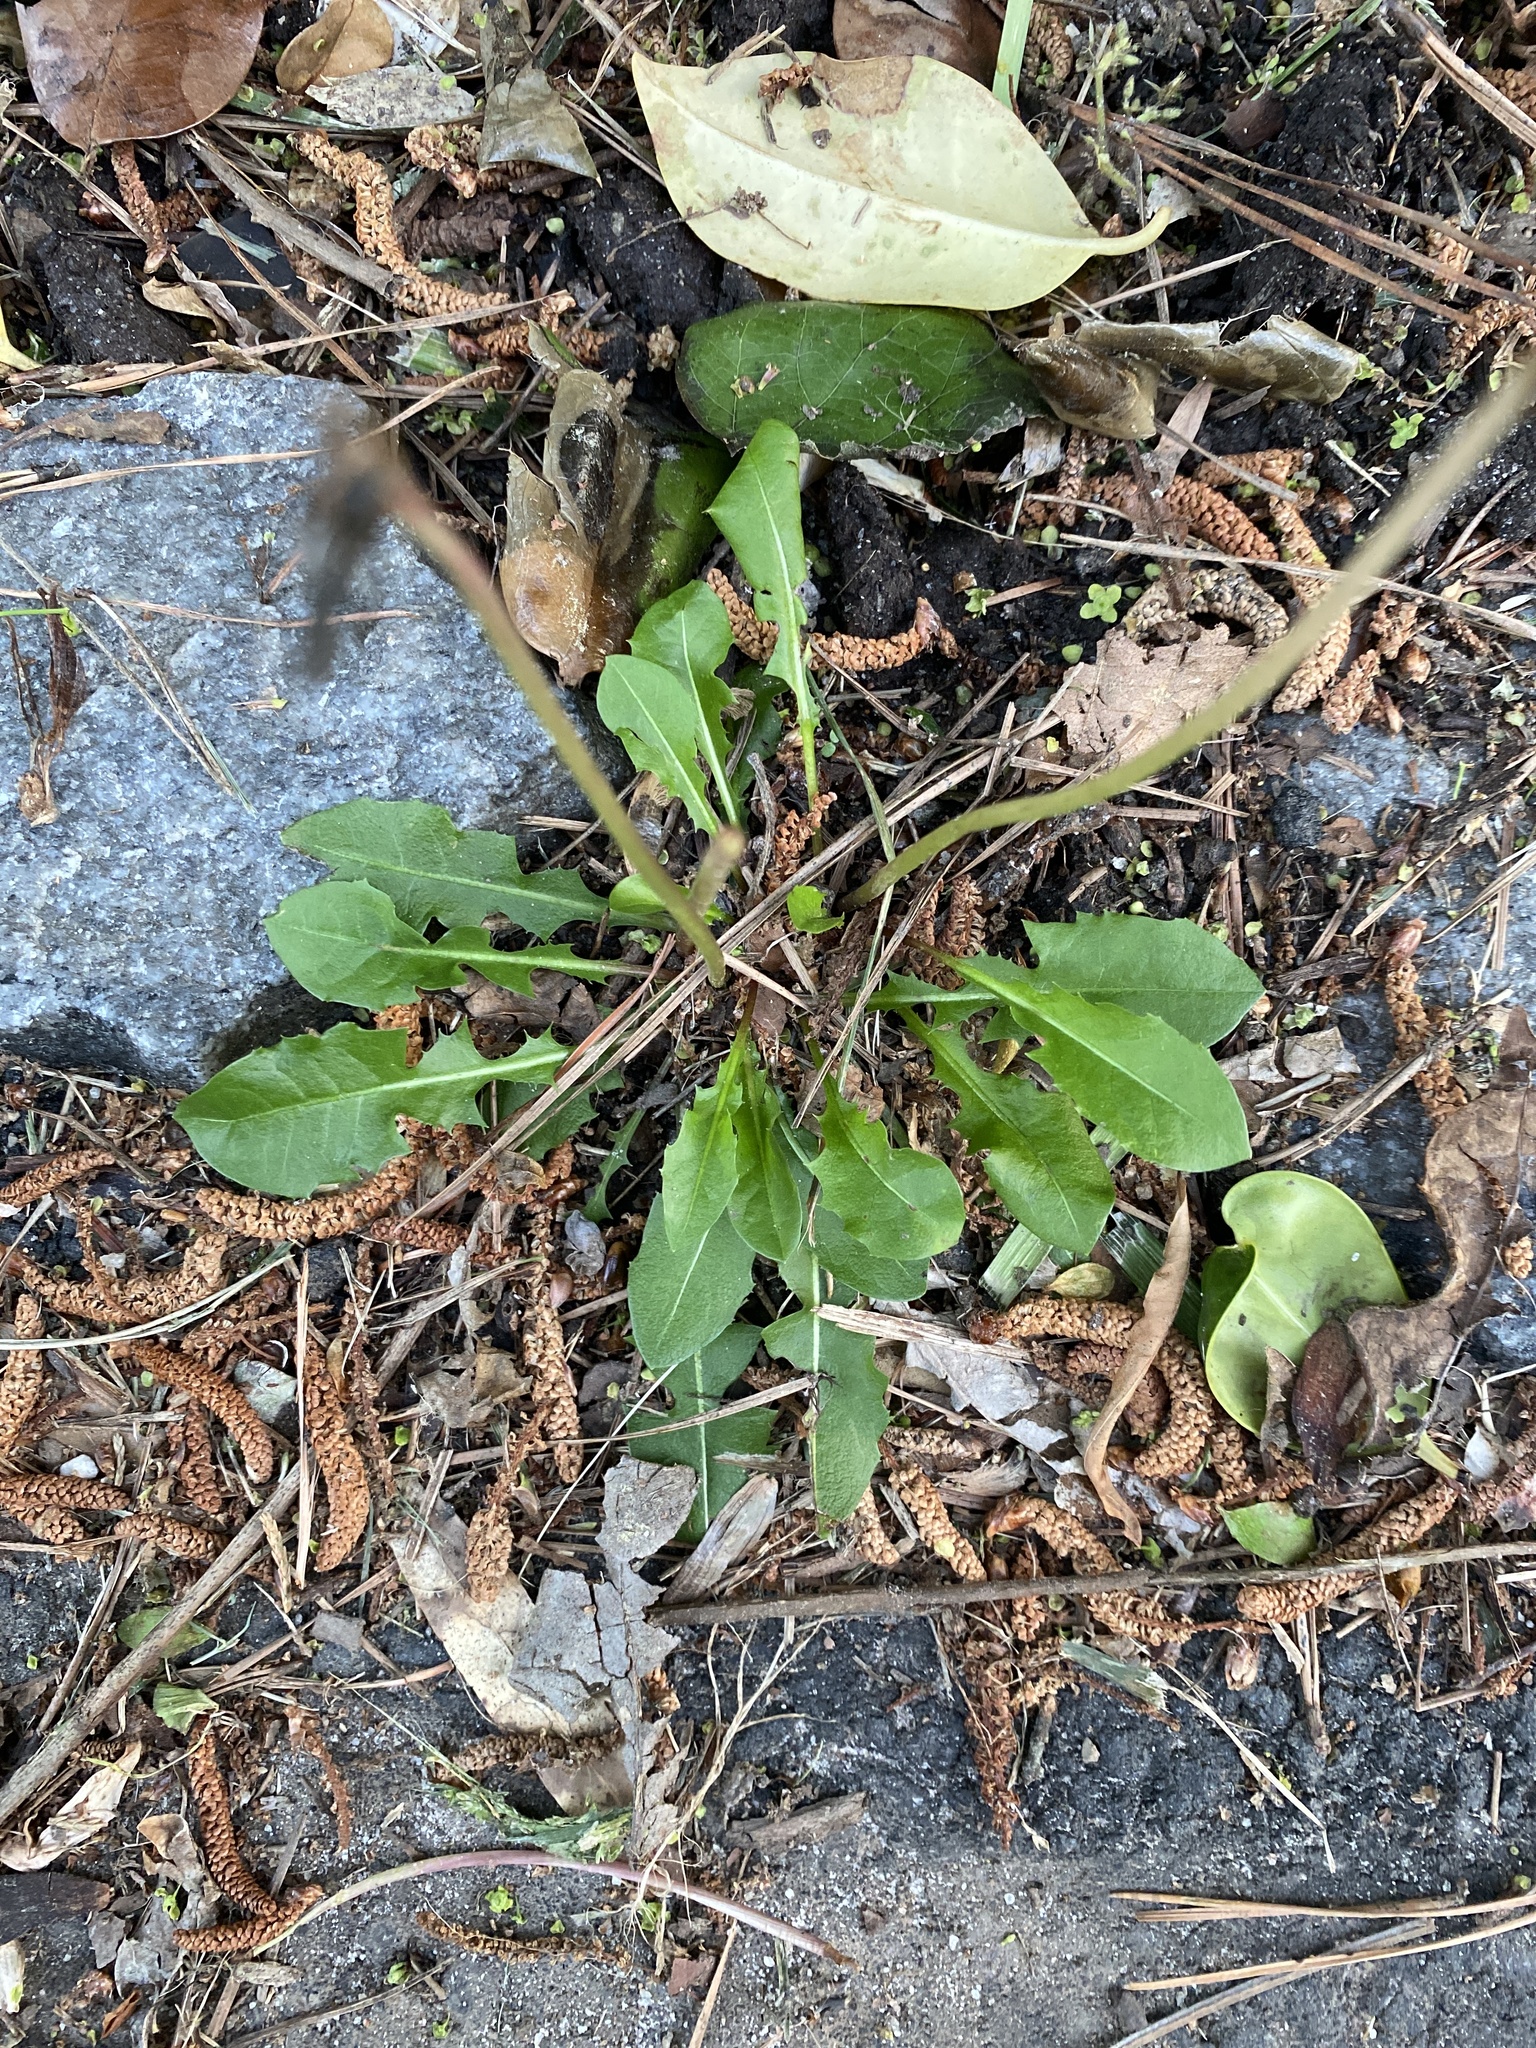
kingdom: Plantae
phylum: Tracheophyta
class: Magnoliopsida
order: Asterales
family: Asteraceae
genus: Taraxacum
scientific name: Taraxacum officinale
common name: Common dandelion
